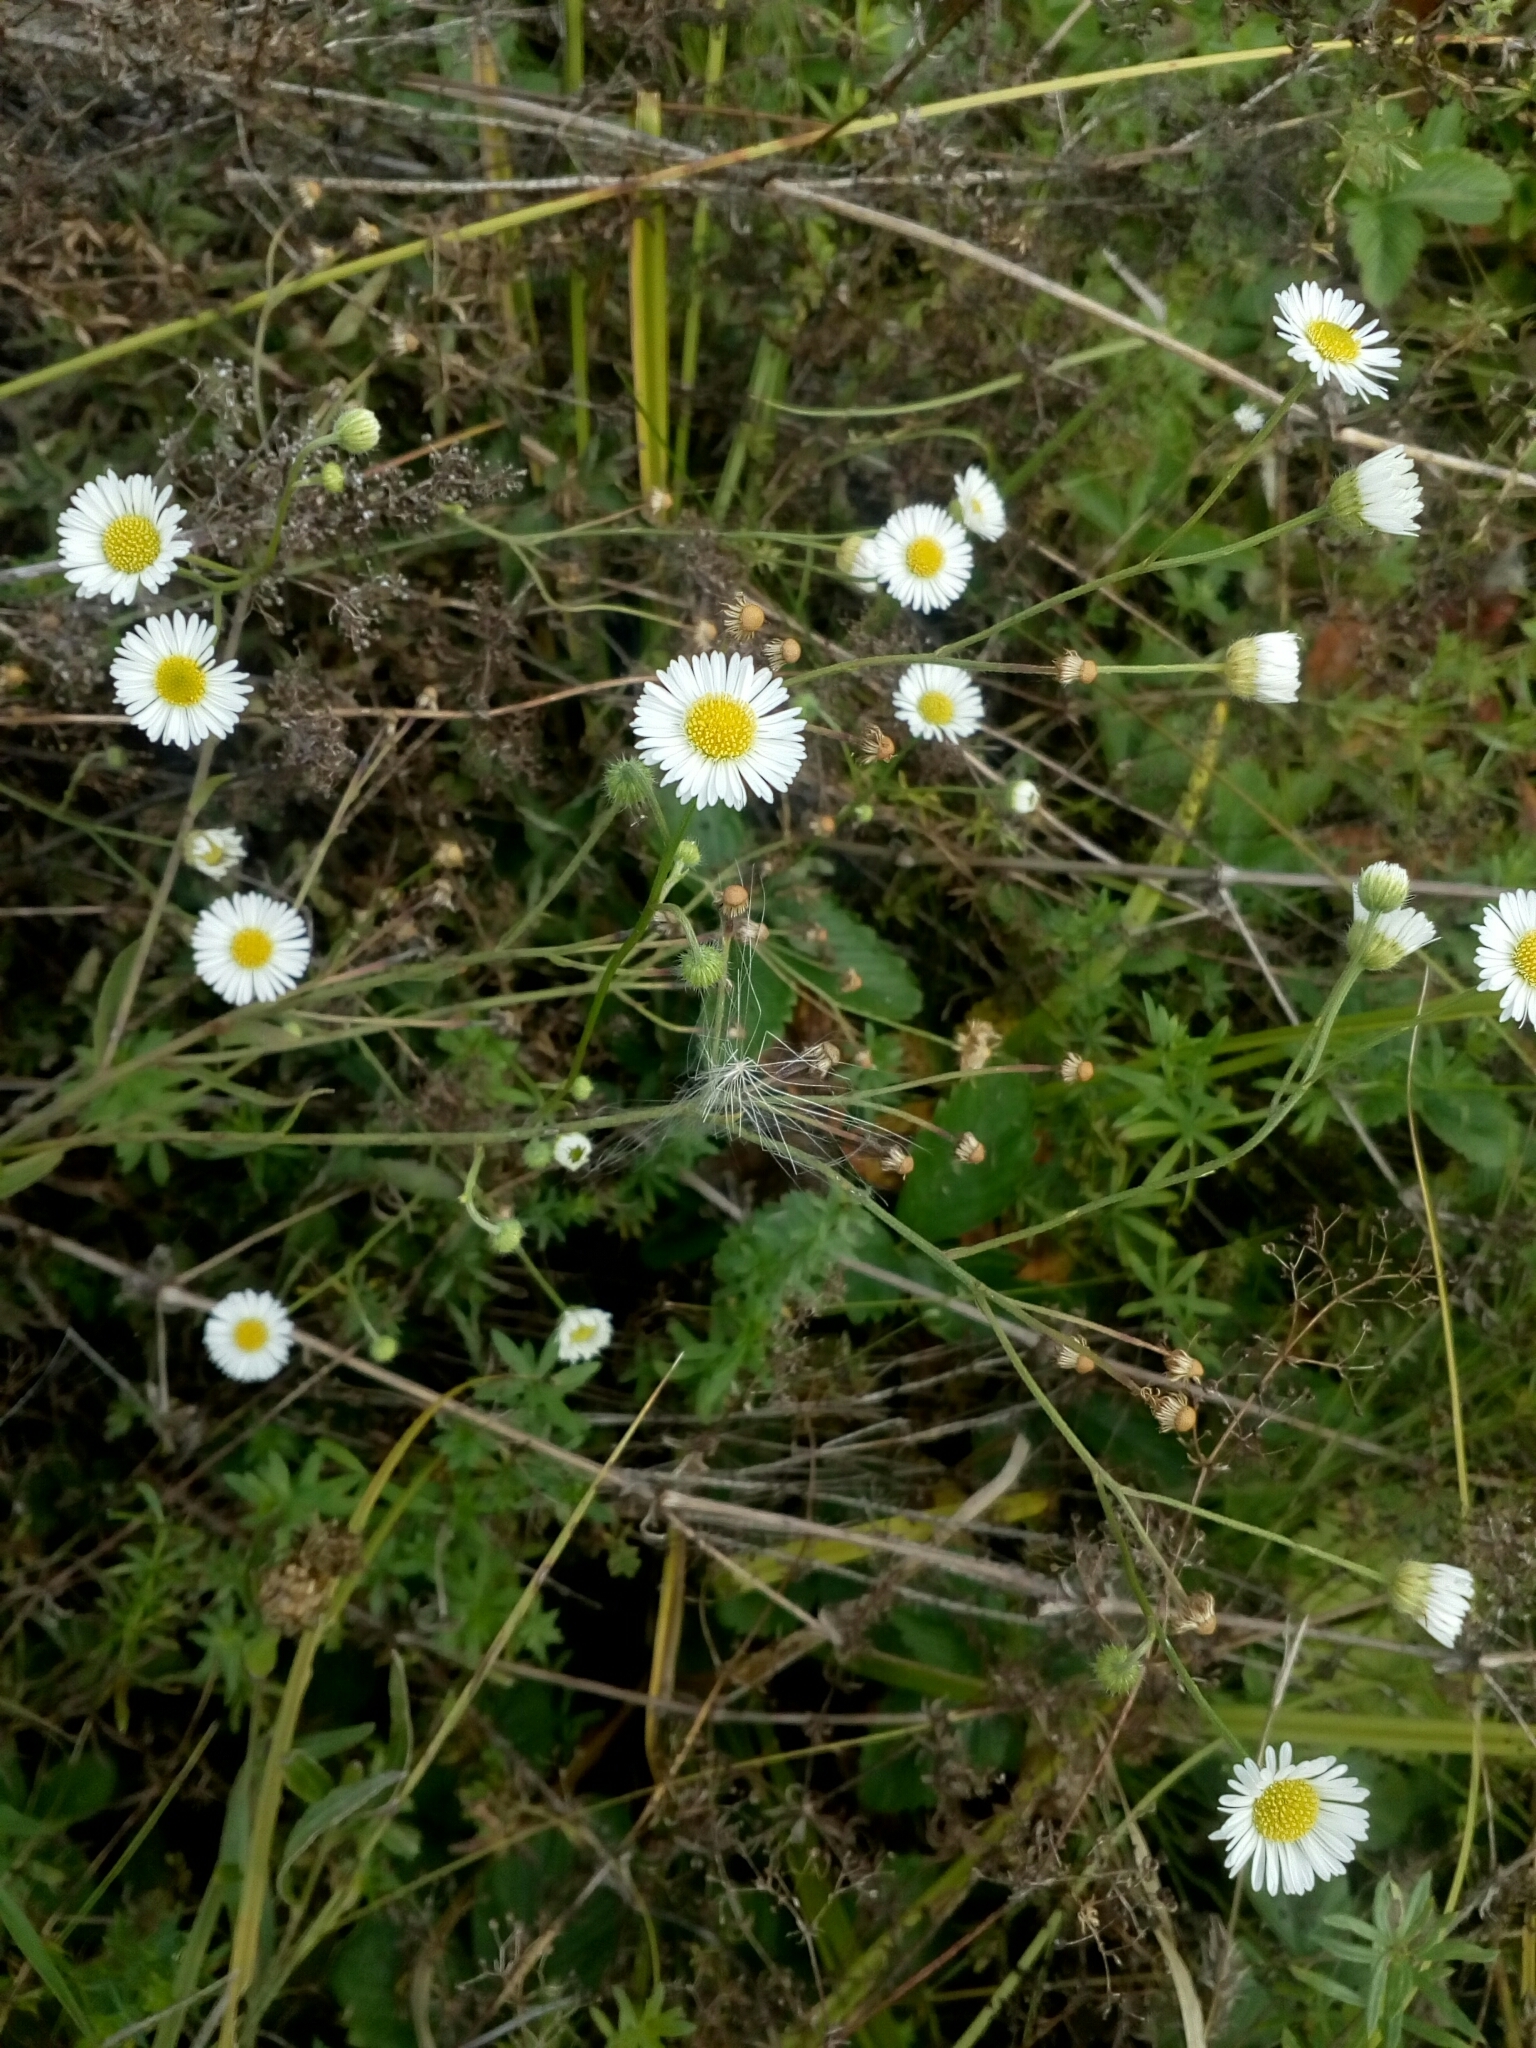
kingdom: Plantae
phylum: Tracheophyta
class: Magnoliopsida
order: Asterales
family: Asteraceae
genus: Erigeron
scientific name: Erigeron annuus
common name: Tall fleabane
